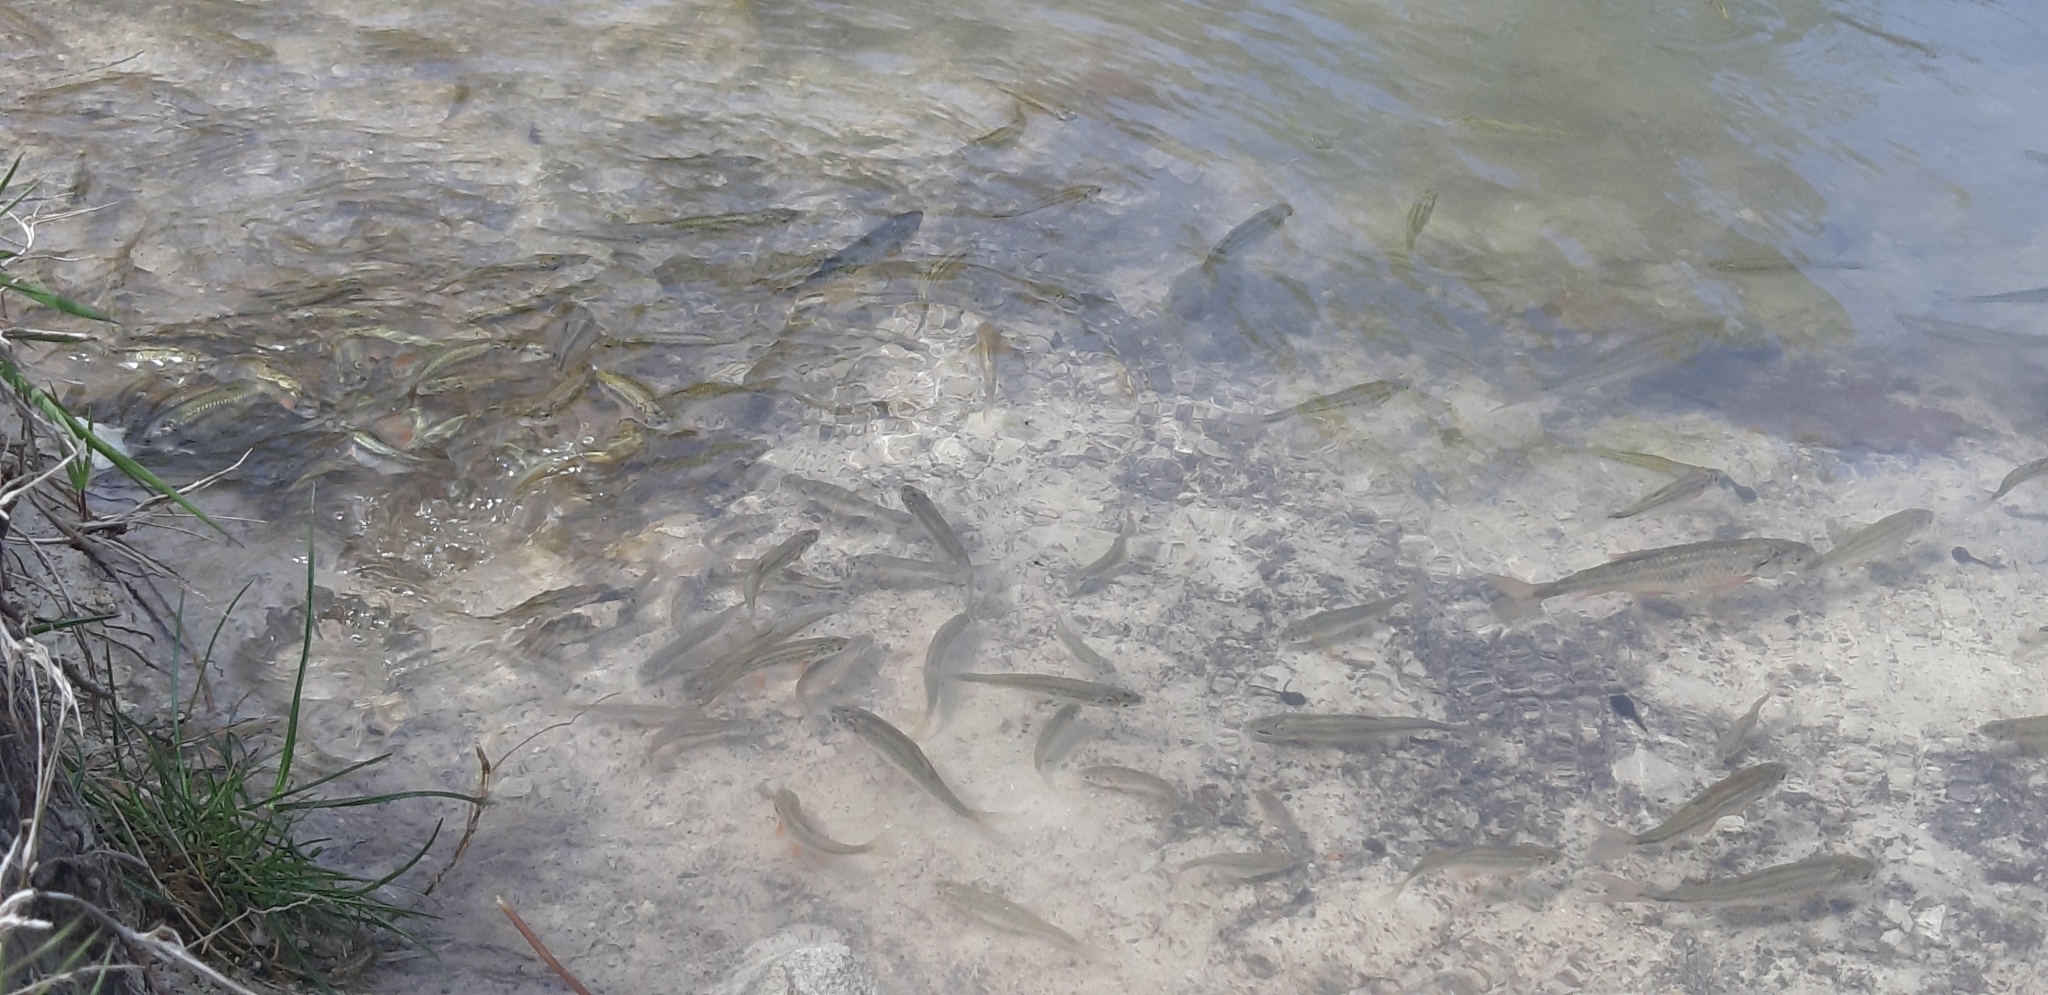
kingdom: Animalia
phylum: Chordata
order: Cypriniformes
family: Cyprinidae
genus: Sarmarutilus
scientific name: Sarmarutilus rubilio
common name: Rovella
